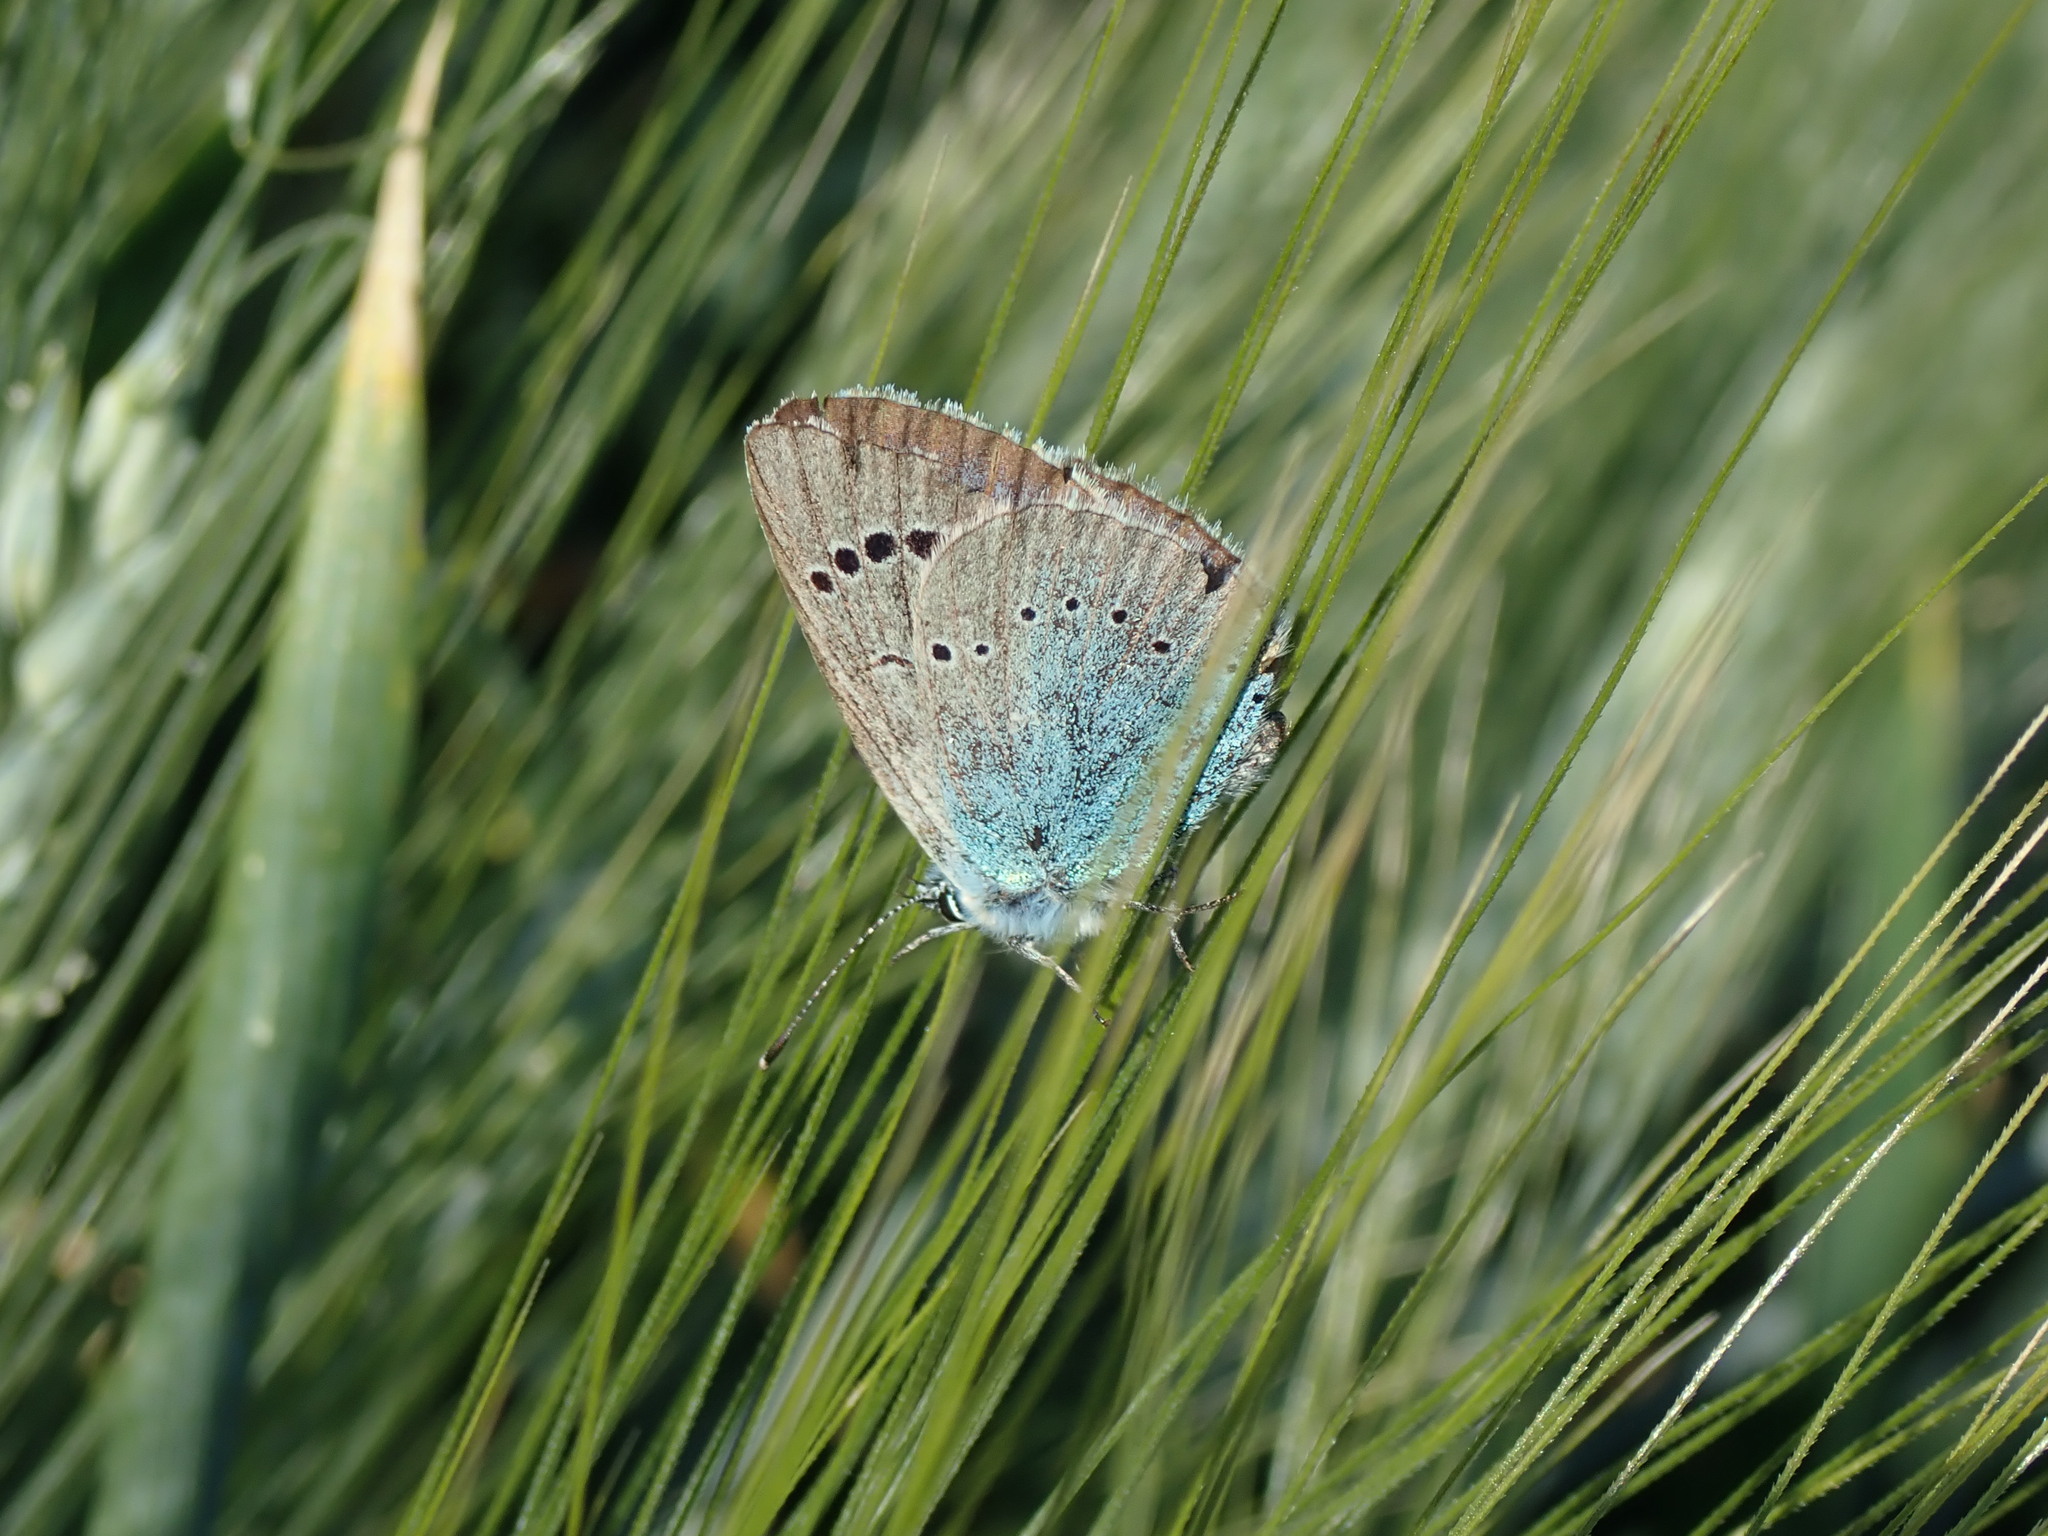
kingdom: Animalia
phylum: Arthropoda
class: Insecta
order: Lepidoptera
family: Lycaenidae
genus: Glaucopsyche
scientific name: Glaucopsyche alexis
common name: Green-underside blue
